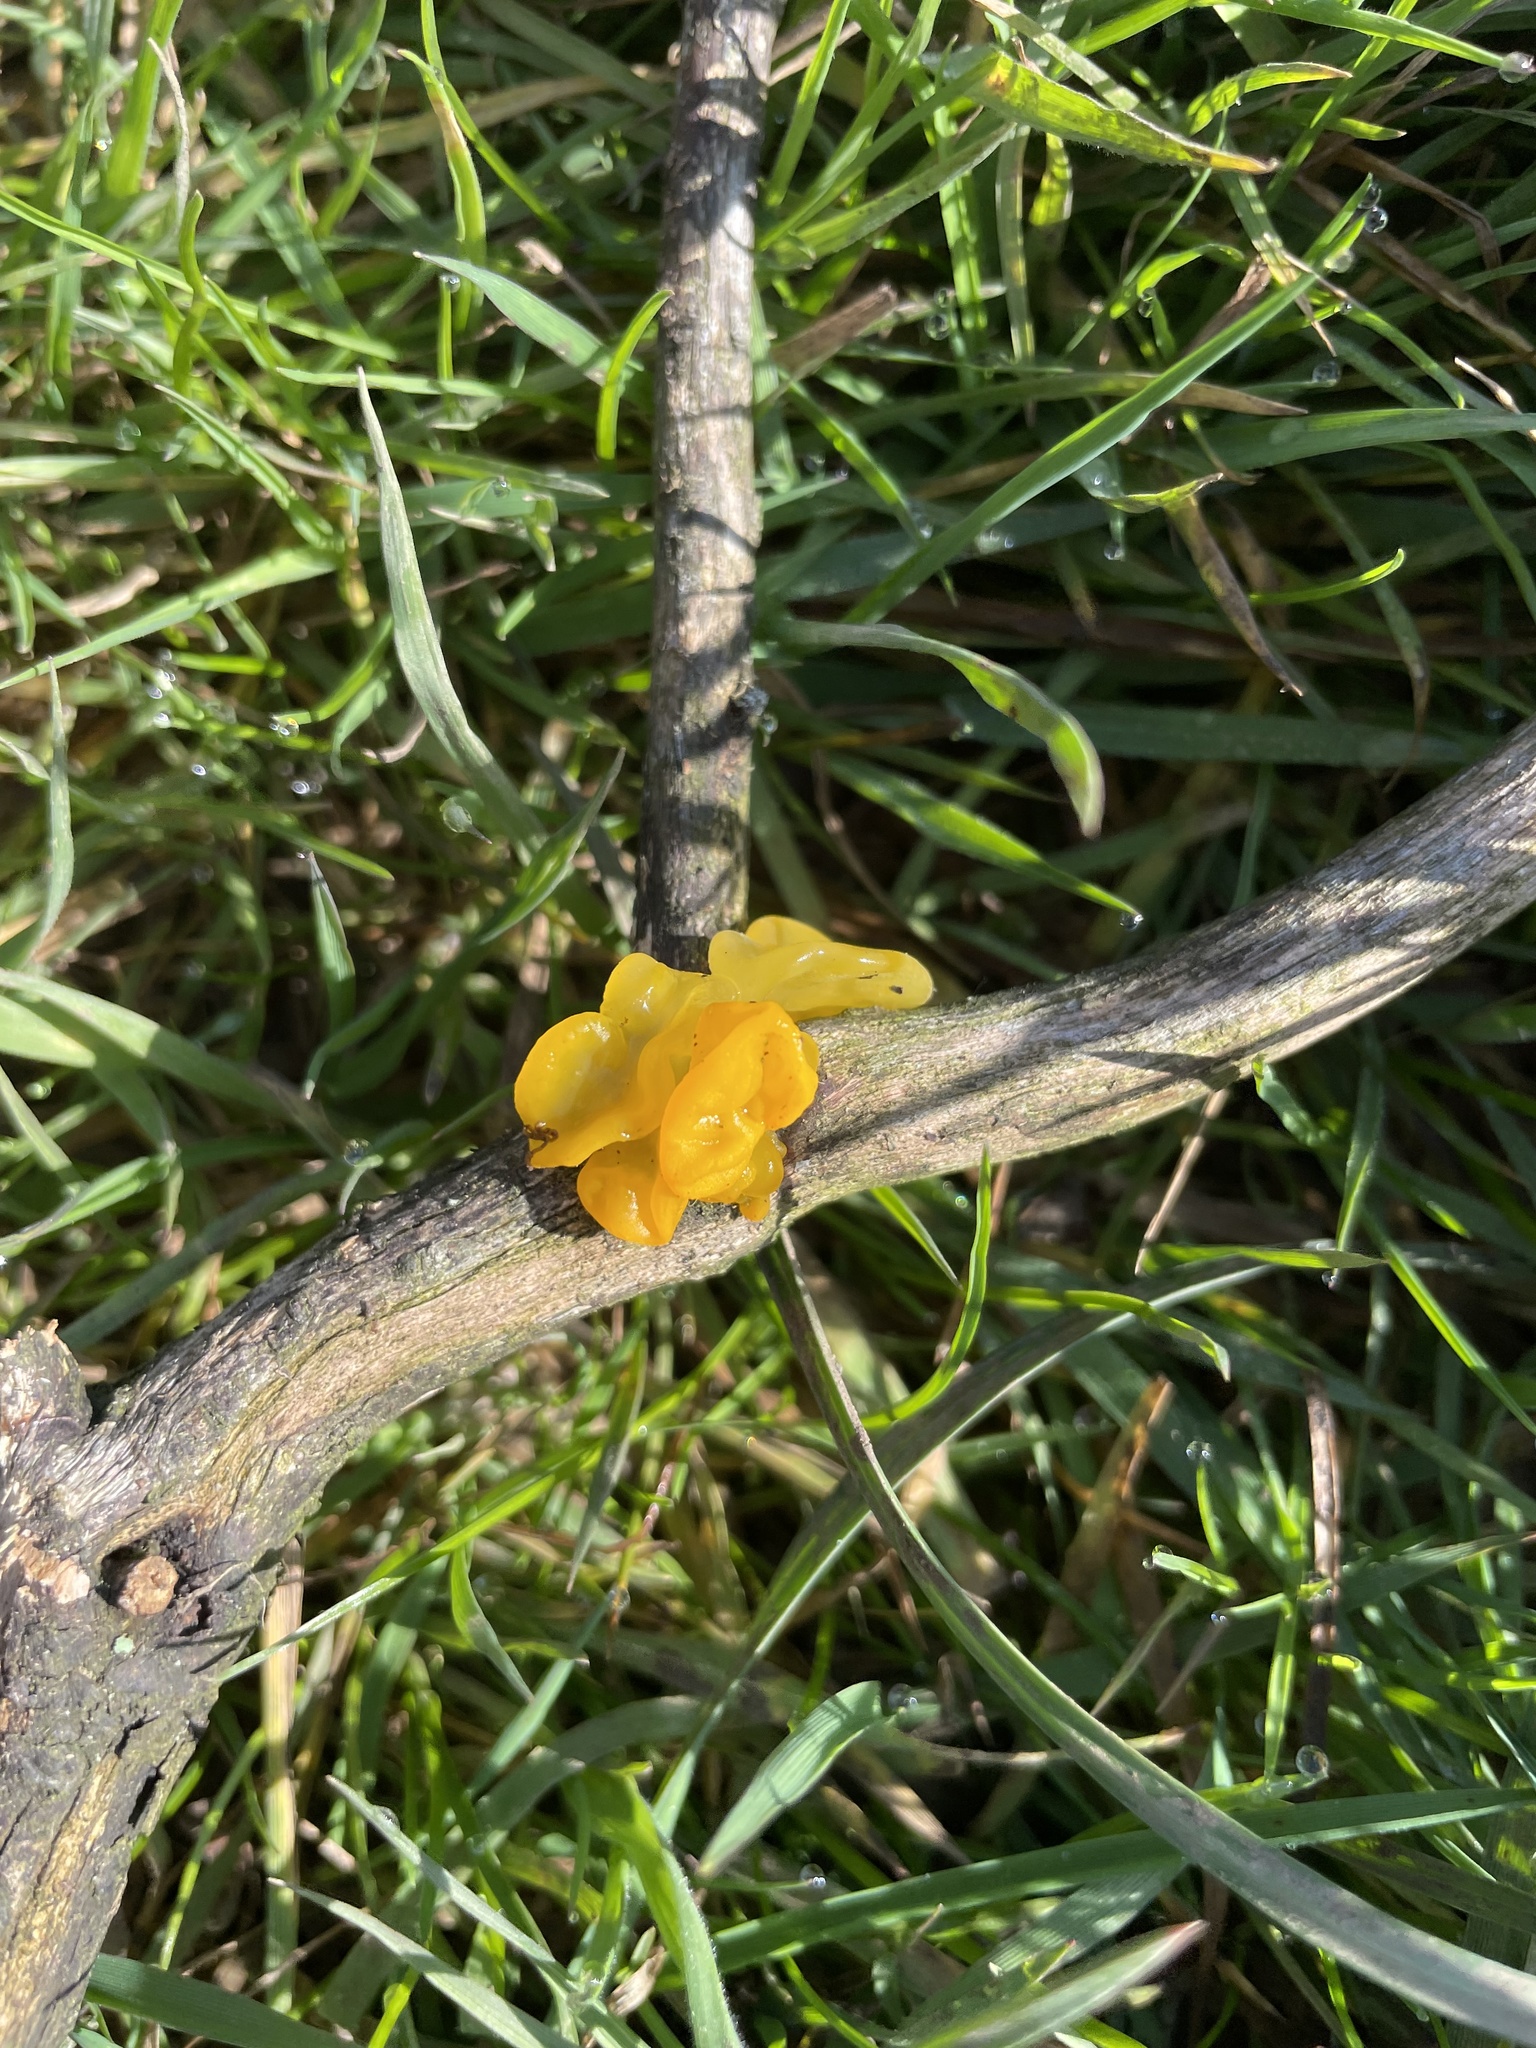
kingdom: Fungi
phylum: Basidiomycota
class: Tremellomycetes
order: Tremellales
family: Tremellaceae
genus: Tremella
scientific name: Tremella mesenterica
